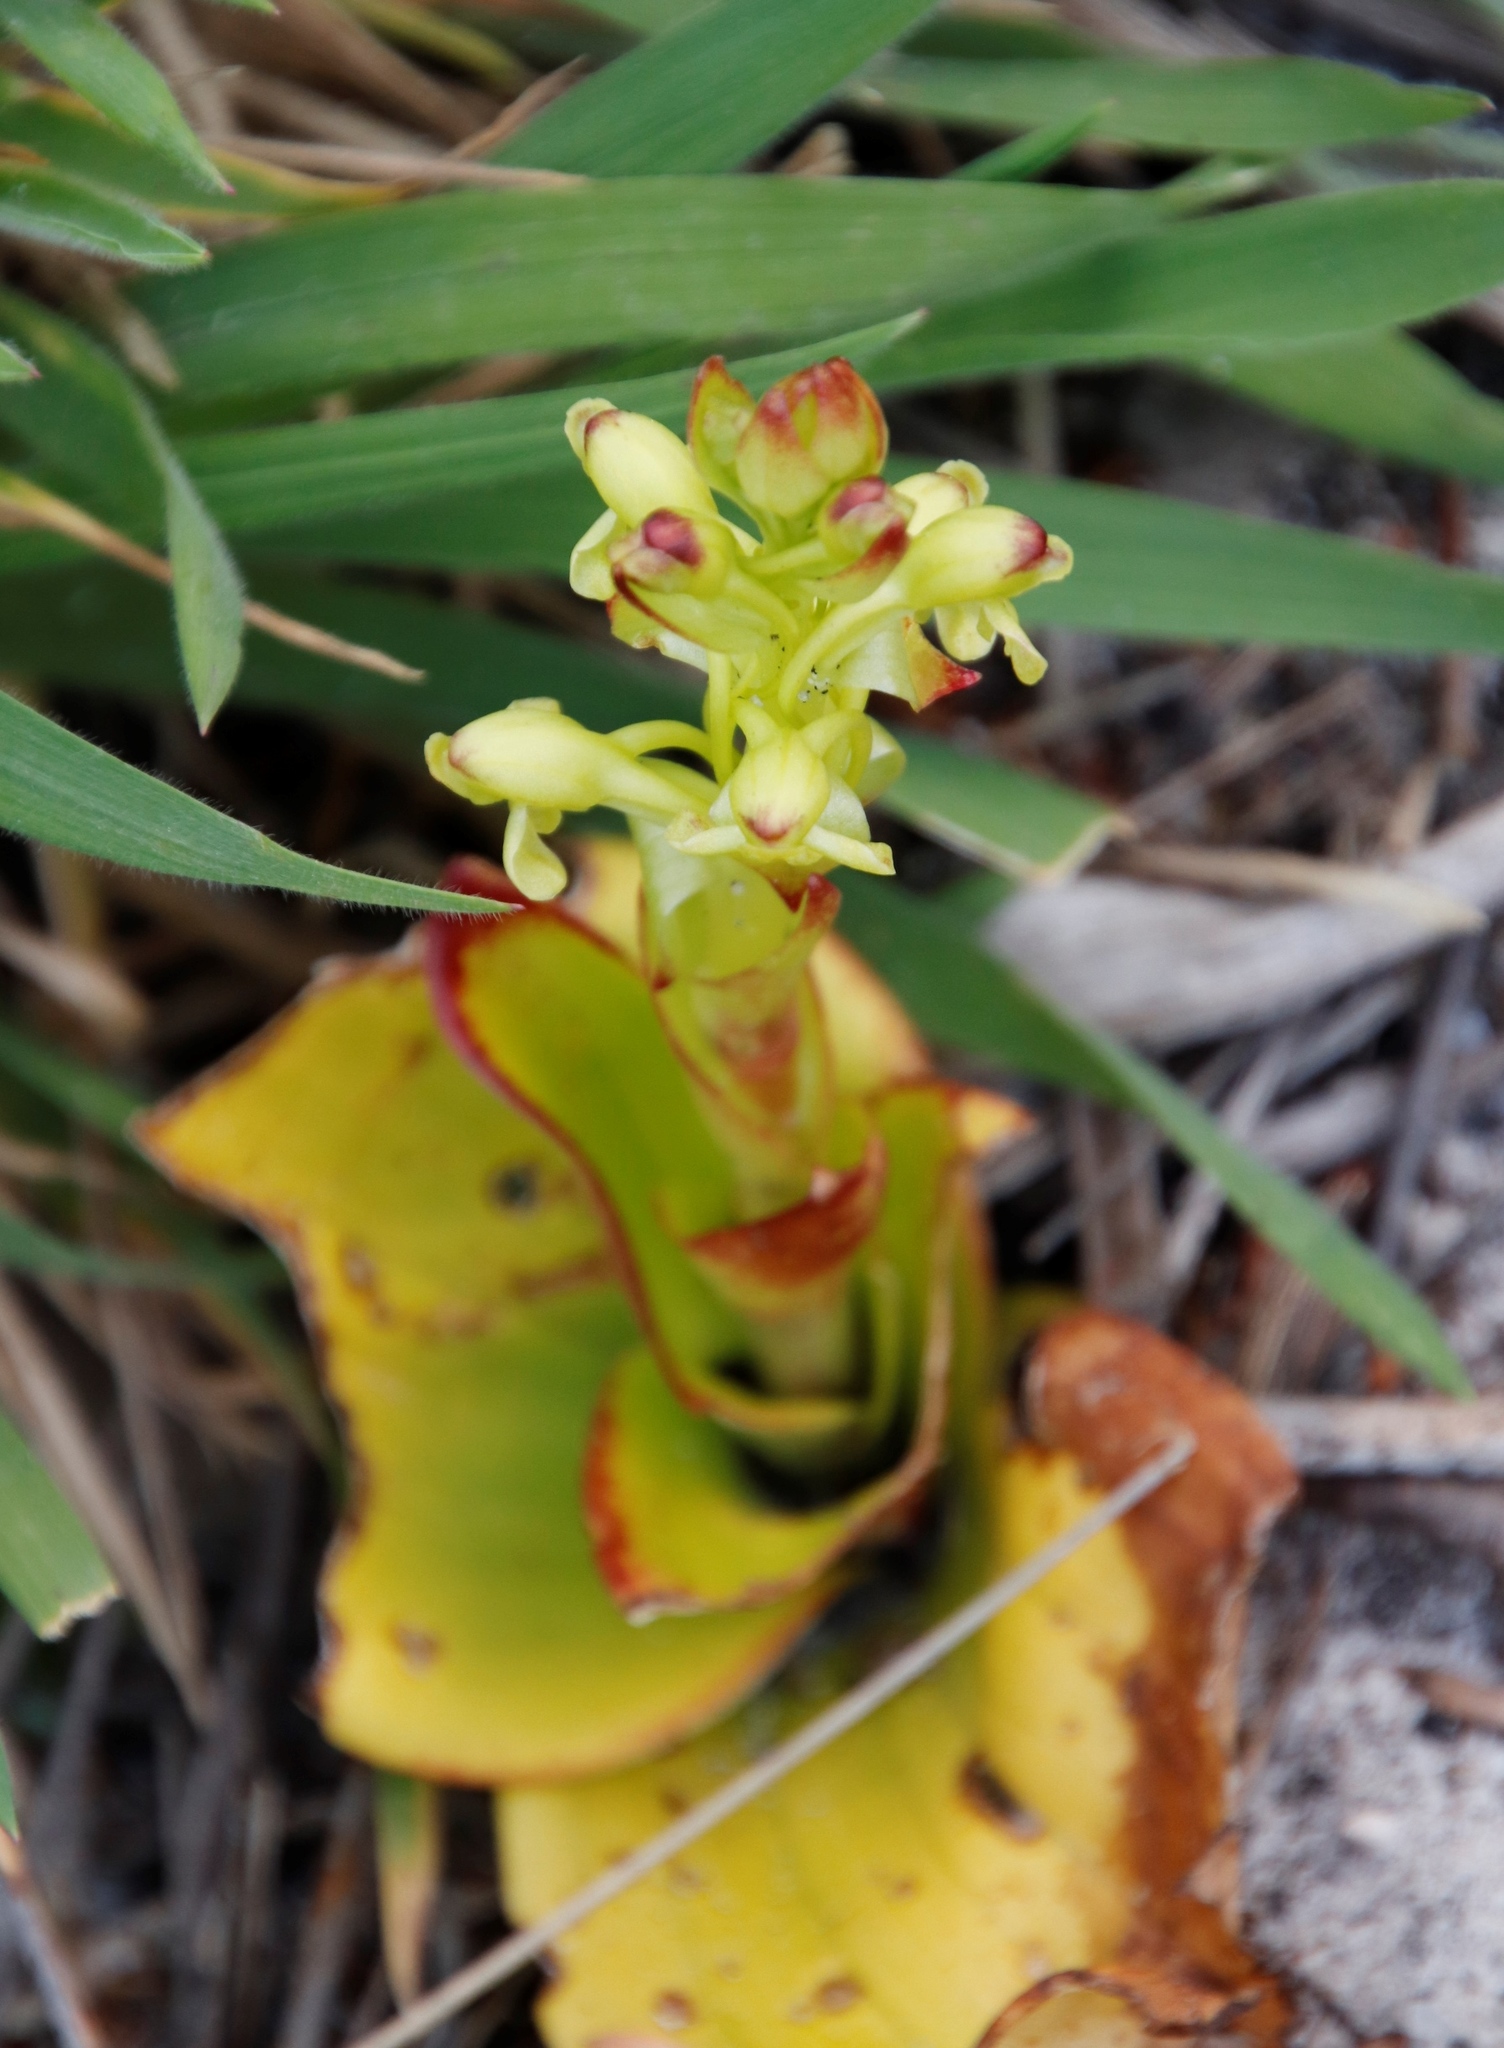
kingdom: Plantae
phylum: Tracheophyta
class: Liliopsida
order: Asparagales
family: Orchidaceae
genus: Satyrium
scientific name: Satyrium odorum
